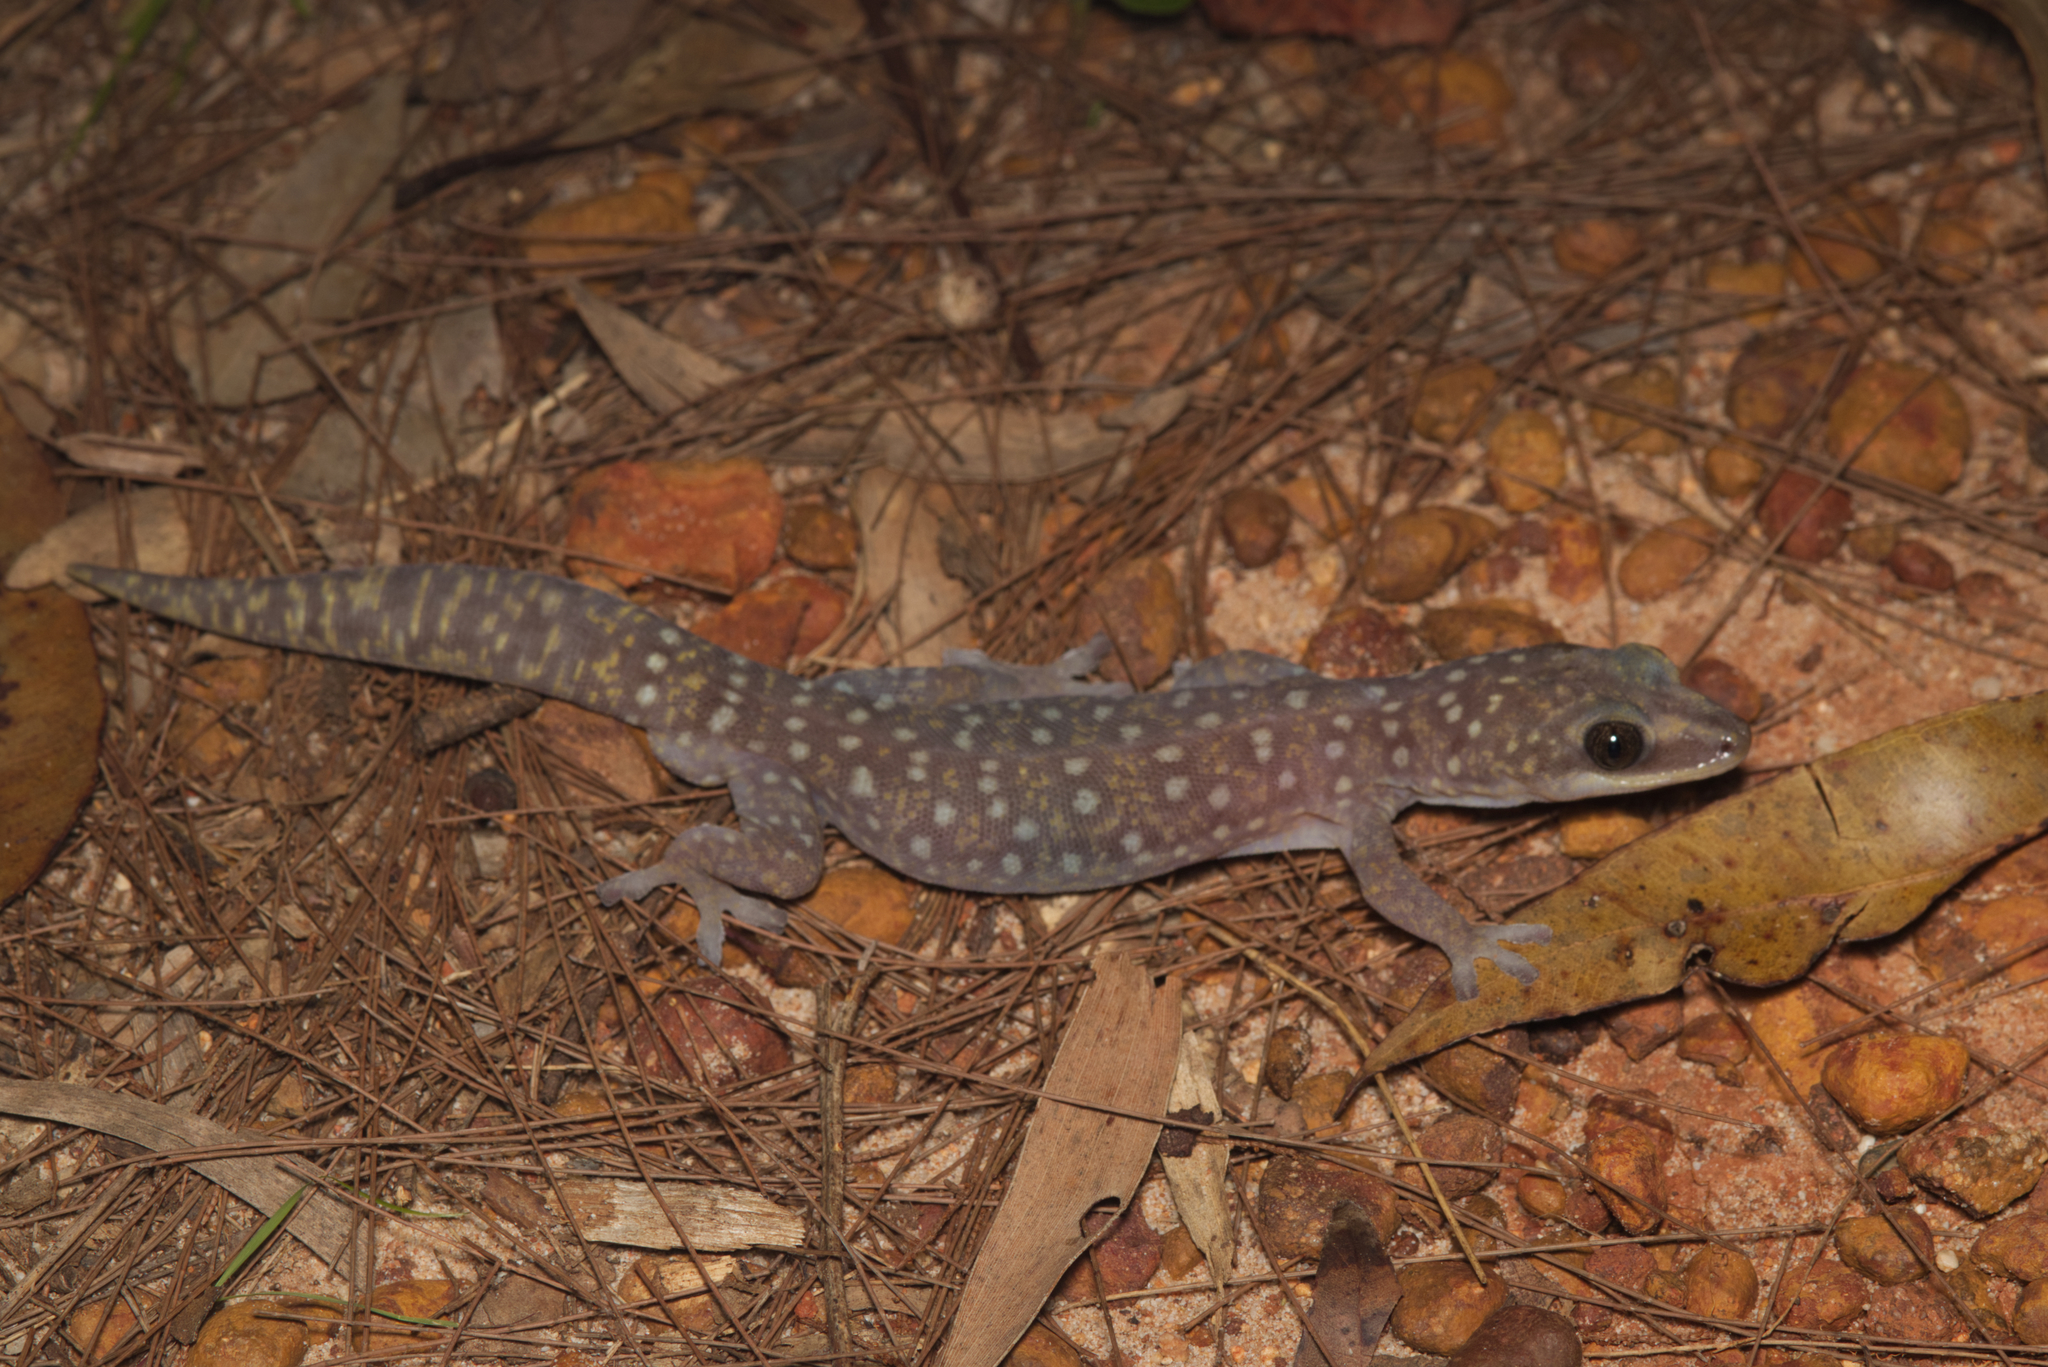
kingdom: Animalia
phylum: Chordata
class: Squamata
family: Diplodactylidae
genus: Oedura
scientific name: Oedura tryoni
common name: Southern spotted velvet gecko
